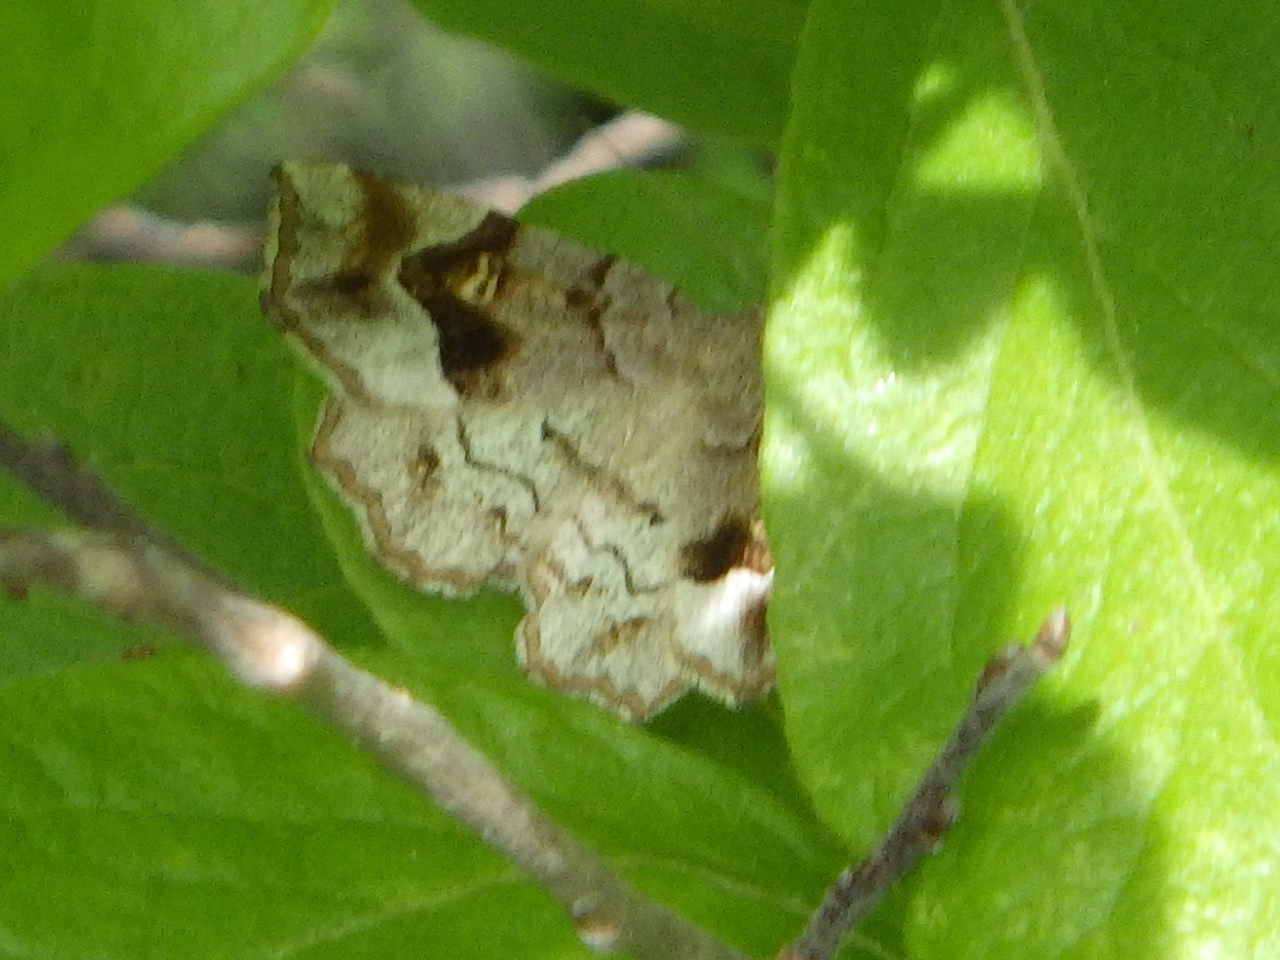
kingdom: Animalia
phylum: Arthropoda
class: Insecta
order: Lepidoptera
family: Erebidae
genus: Pangrapta
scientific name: Pangrapta decoralis
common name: Decorated owlet
